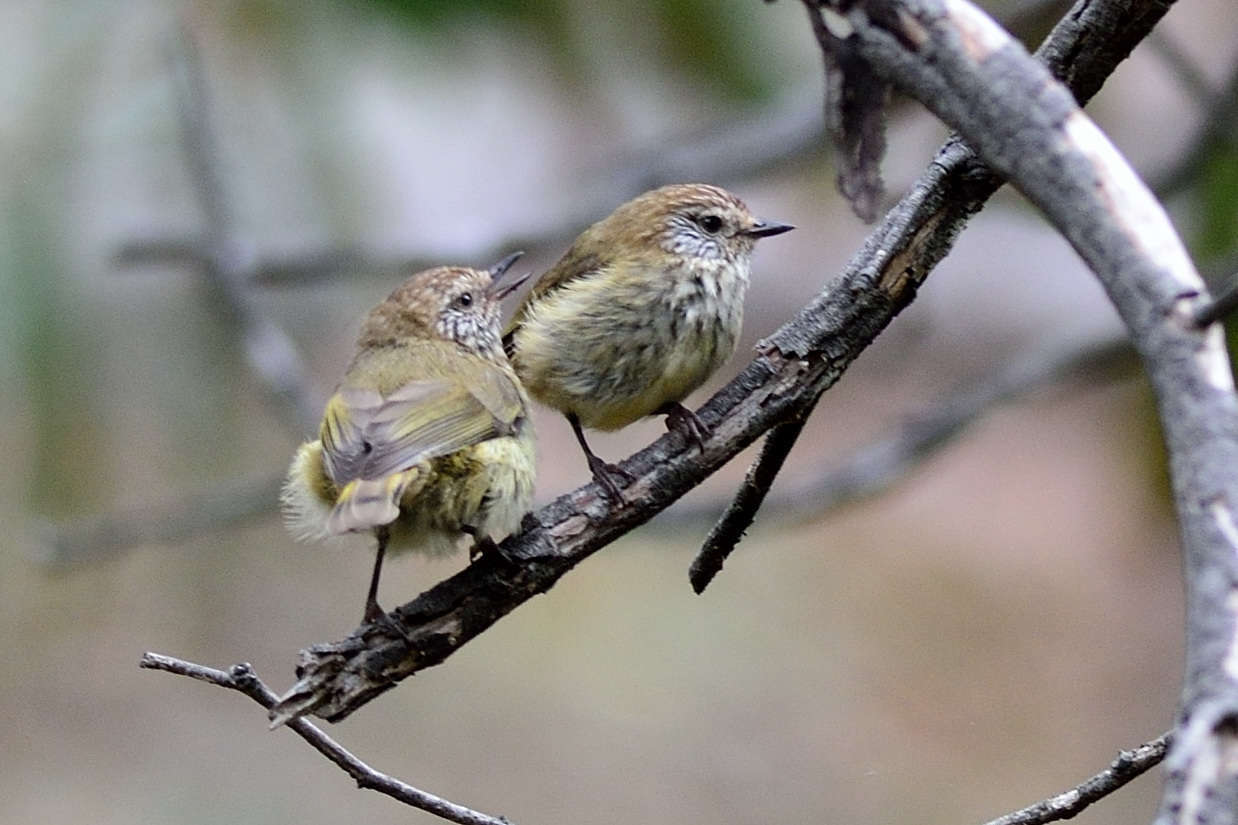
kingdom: Animalia
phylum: Chordata
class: Aves
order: Passeriformes
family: Acanthizidae
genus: Acanthiza
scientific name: Acanthiza lineata
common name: Striated thornbill
